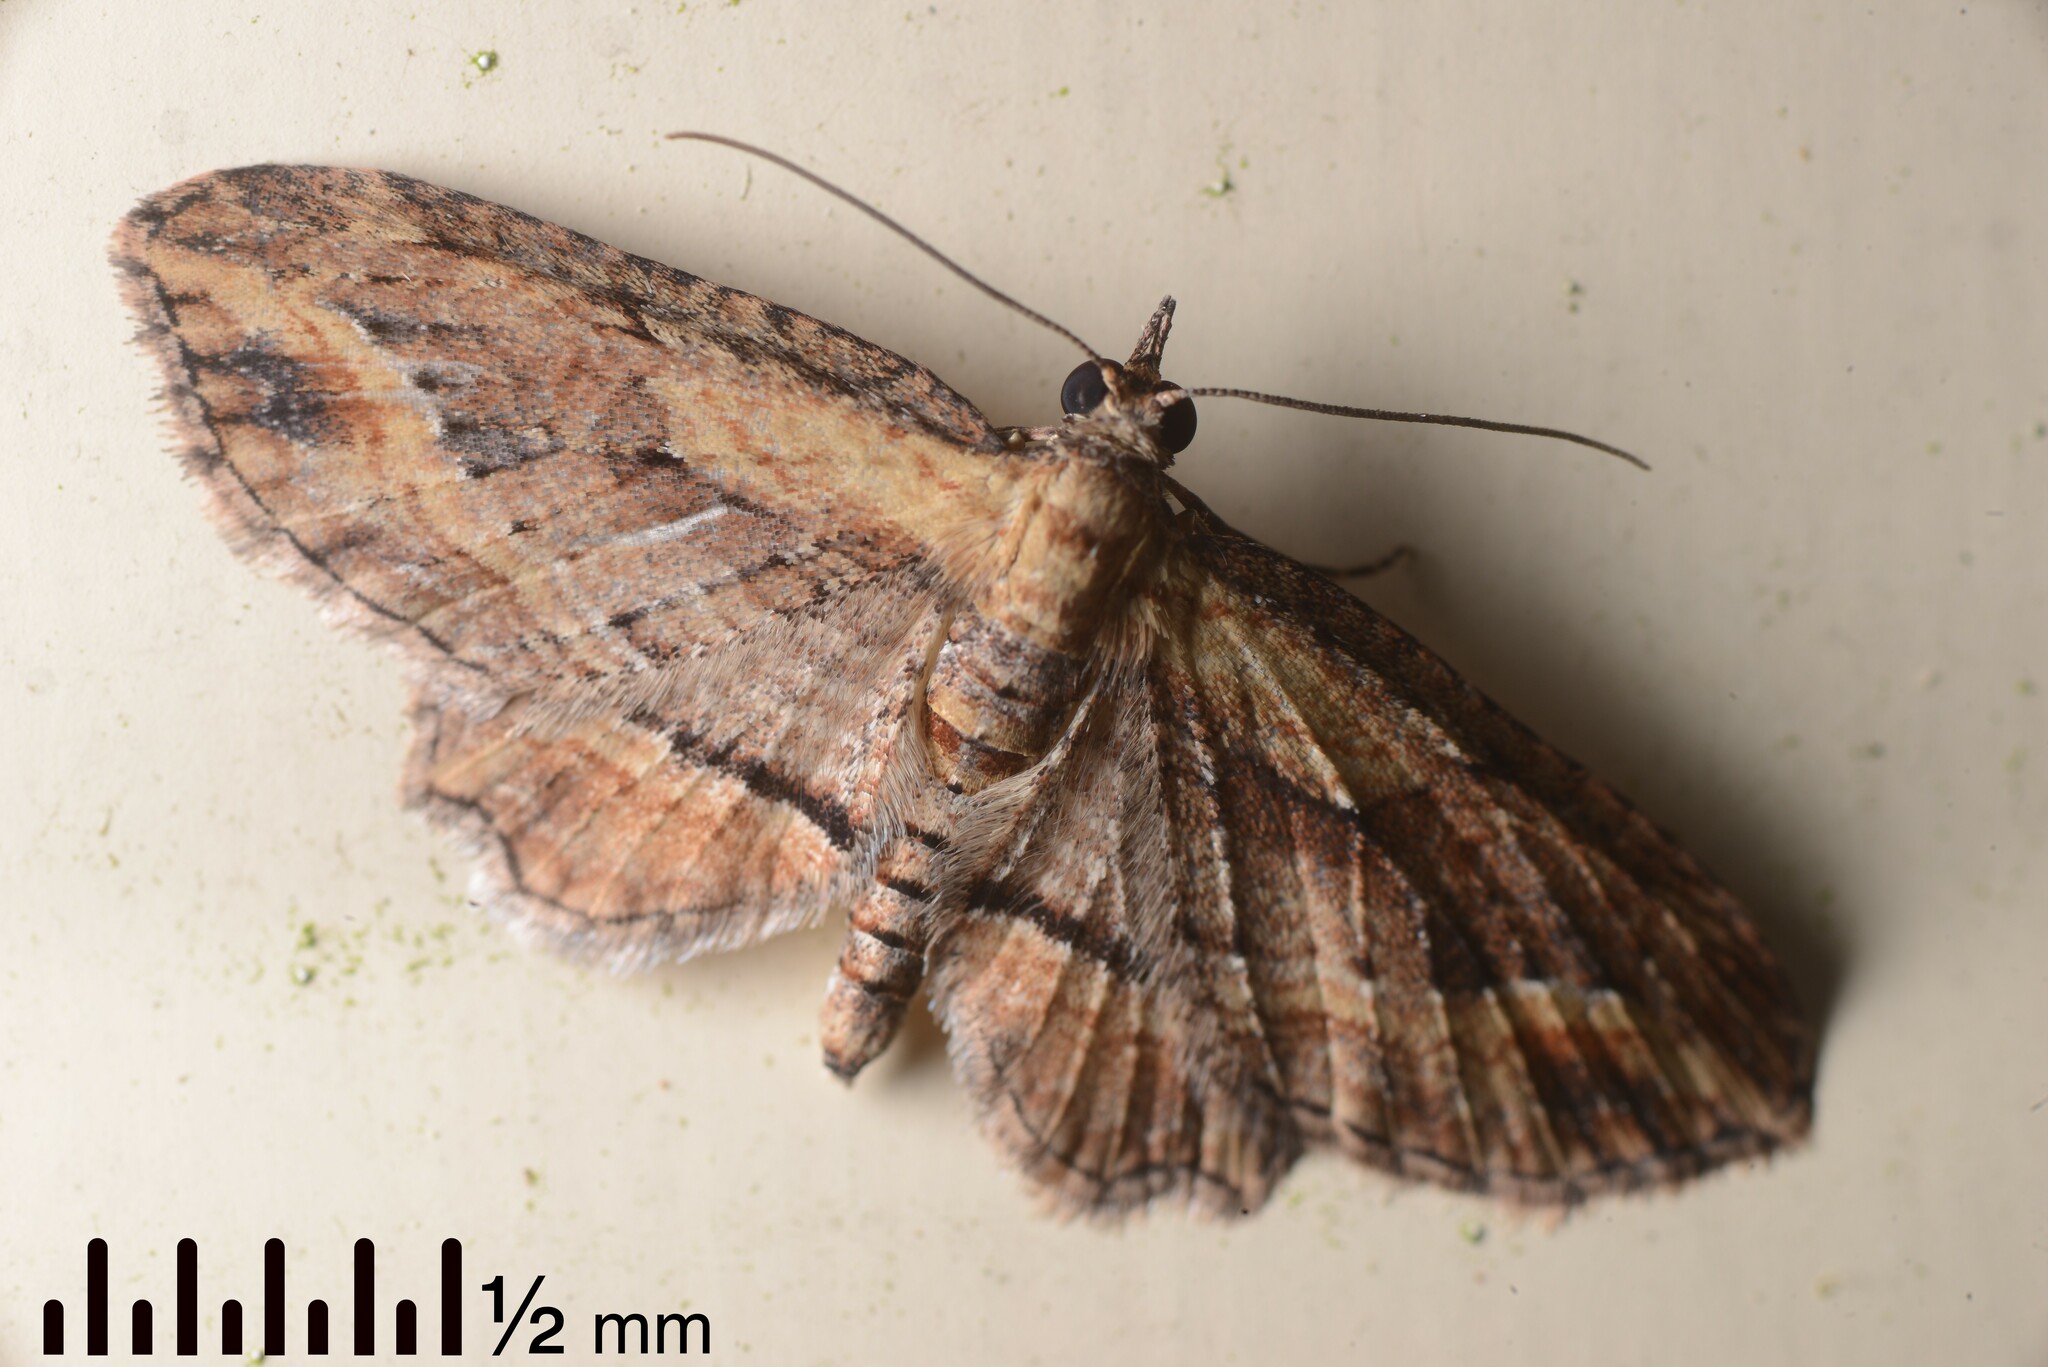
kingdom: Animalia
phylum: Arthropoda
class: Insecta
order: Lepidoptera
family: Geometridae
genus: Chloroclystis
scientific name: Chloroclystis filata
